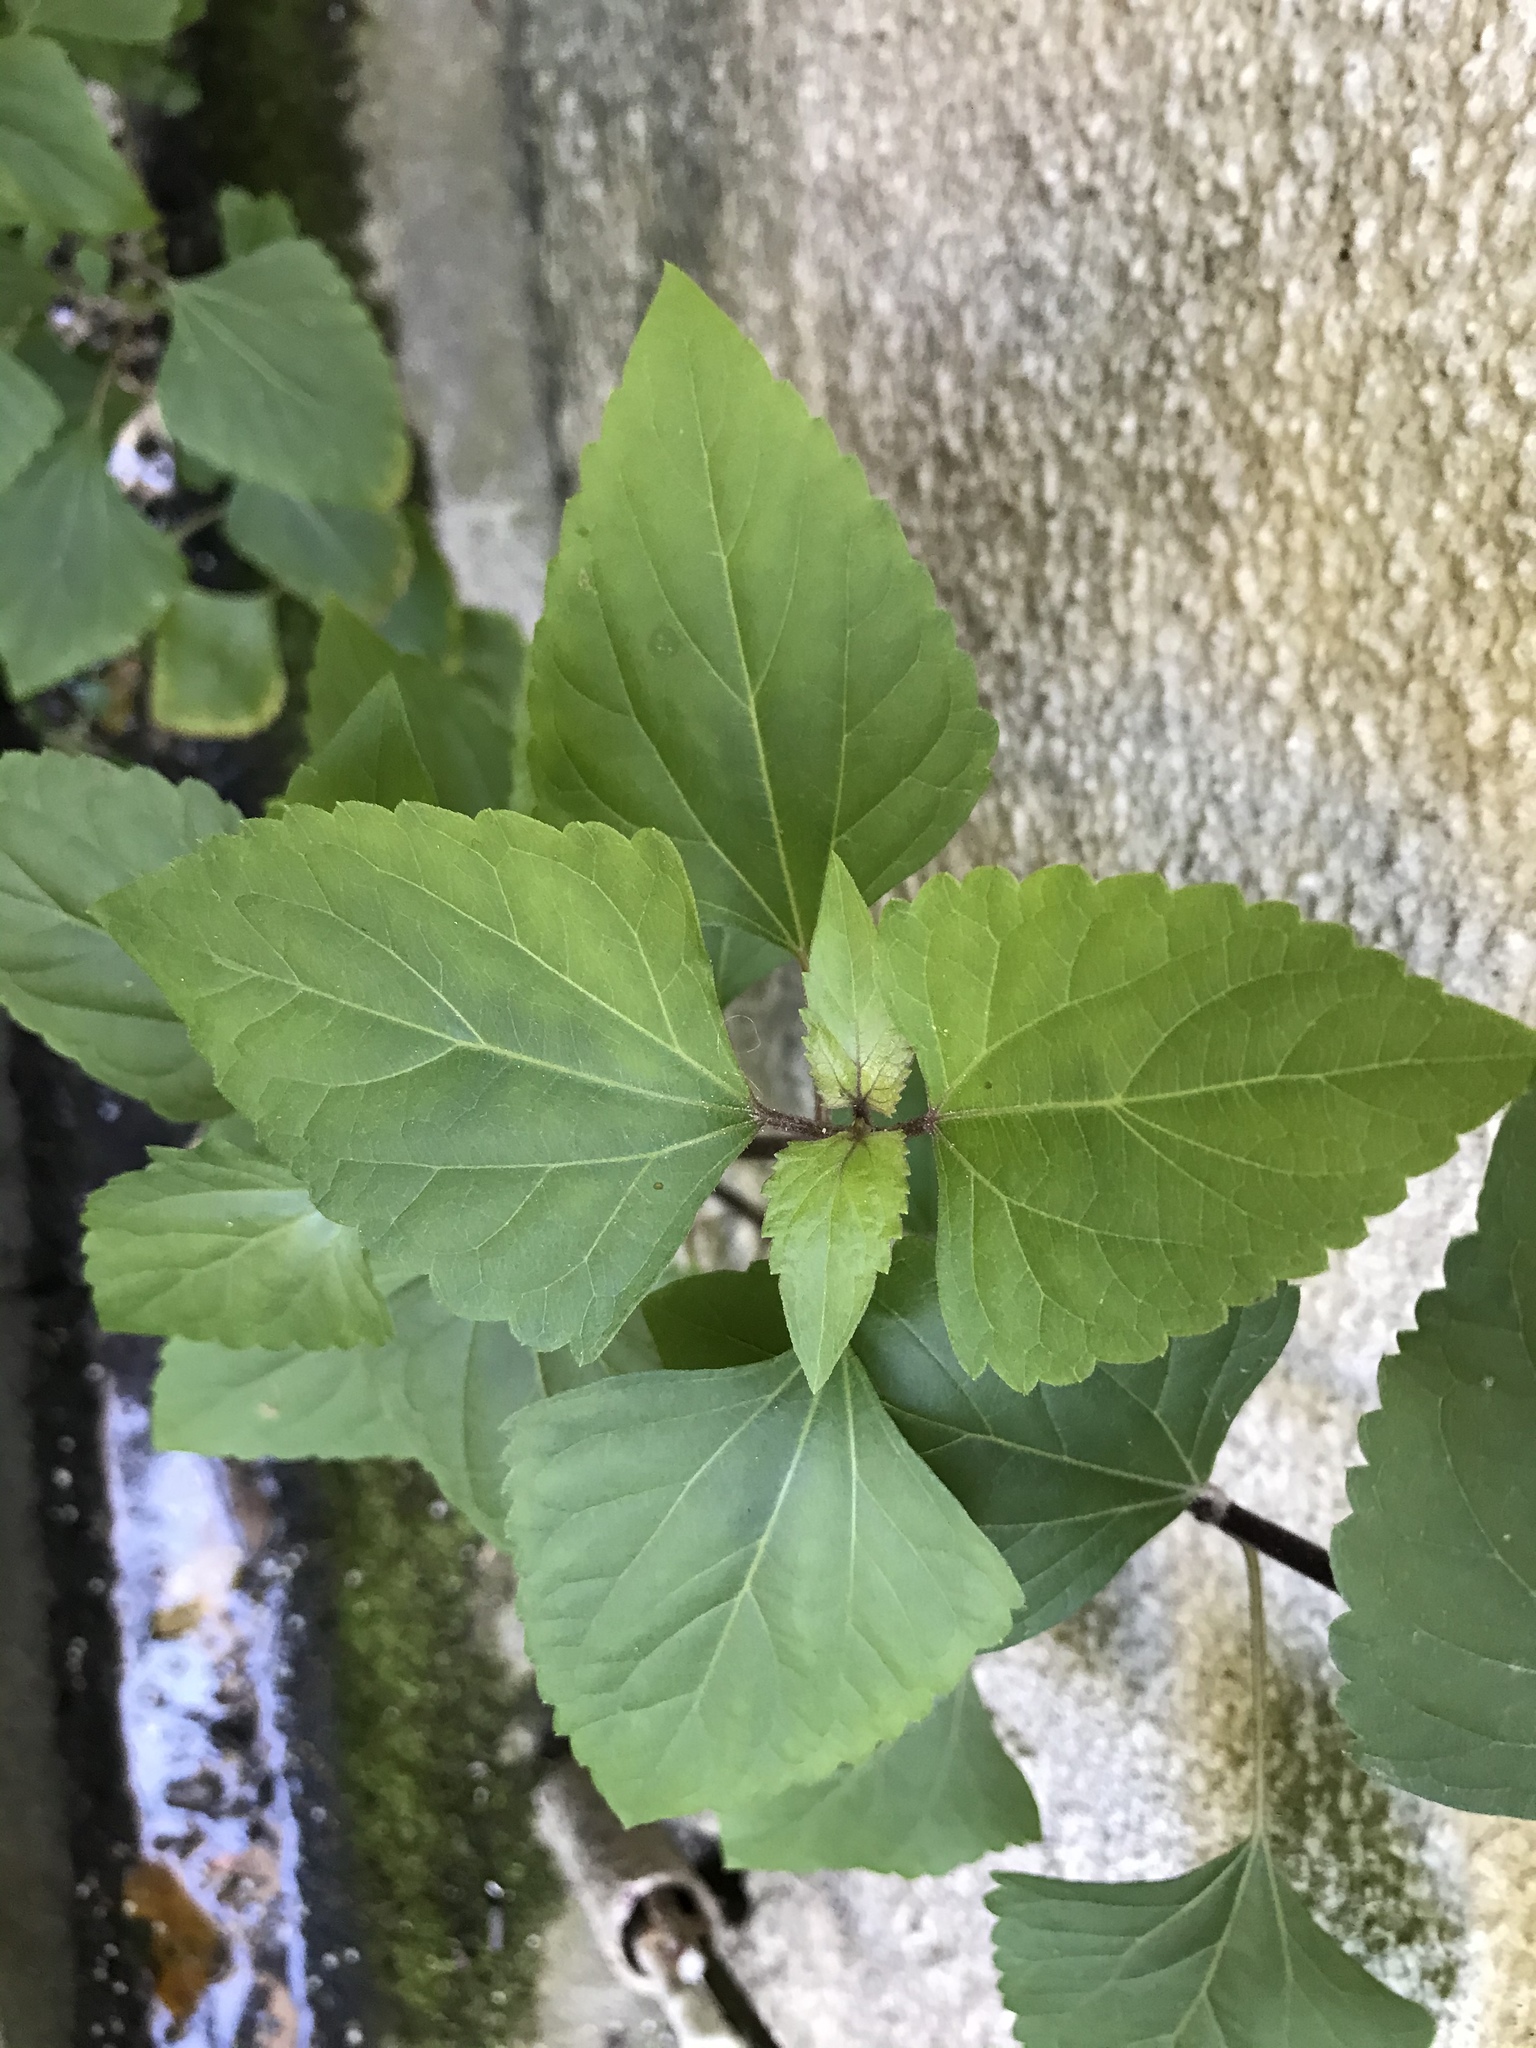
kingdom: Plantae
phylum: Tracheophyta
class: Magnoliopsida
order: Asterales
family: Asteraceae
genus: Ageratina
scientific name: Ageratina adenophora
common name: Sticky snakeroot
